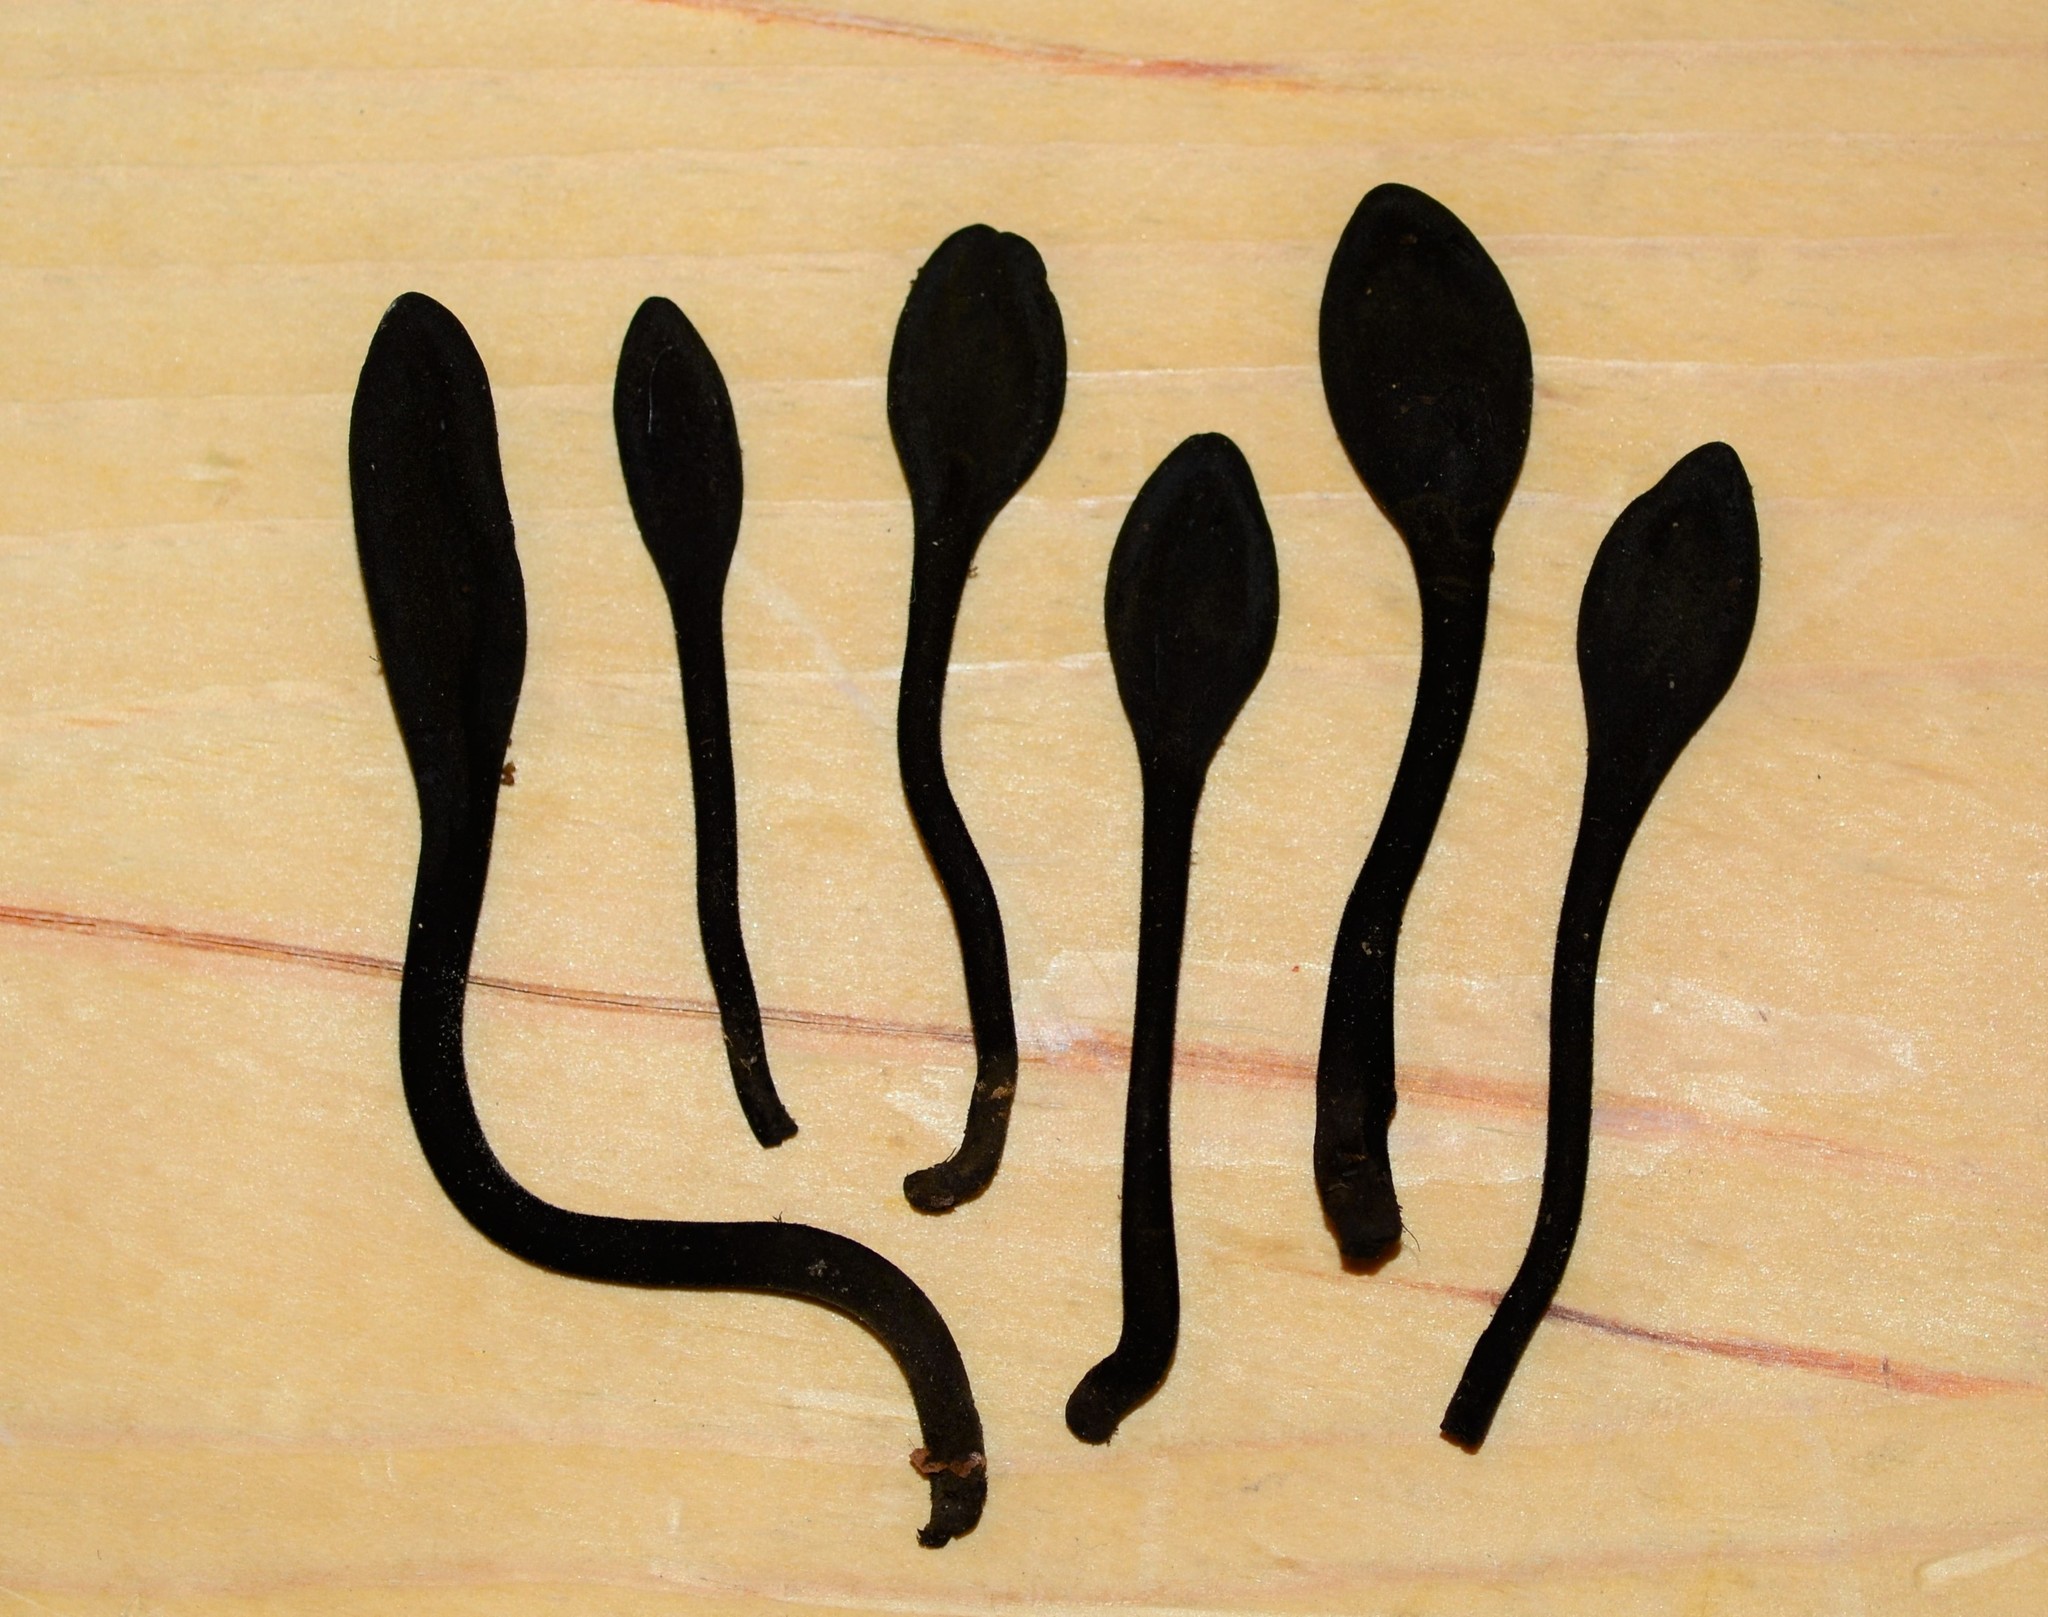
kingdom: Fungi
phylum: Ascomycota
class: Geoglossomycetes
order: Geoglossales
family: Geoglossaceae
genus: Trichoglossum
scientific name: Trichoglossum hirsutum
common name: Hairy earthtongue
